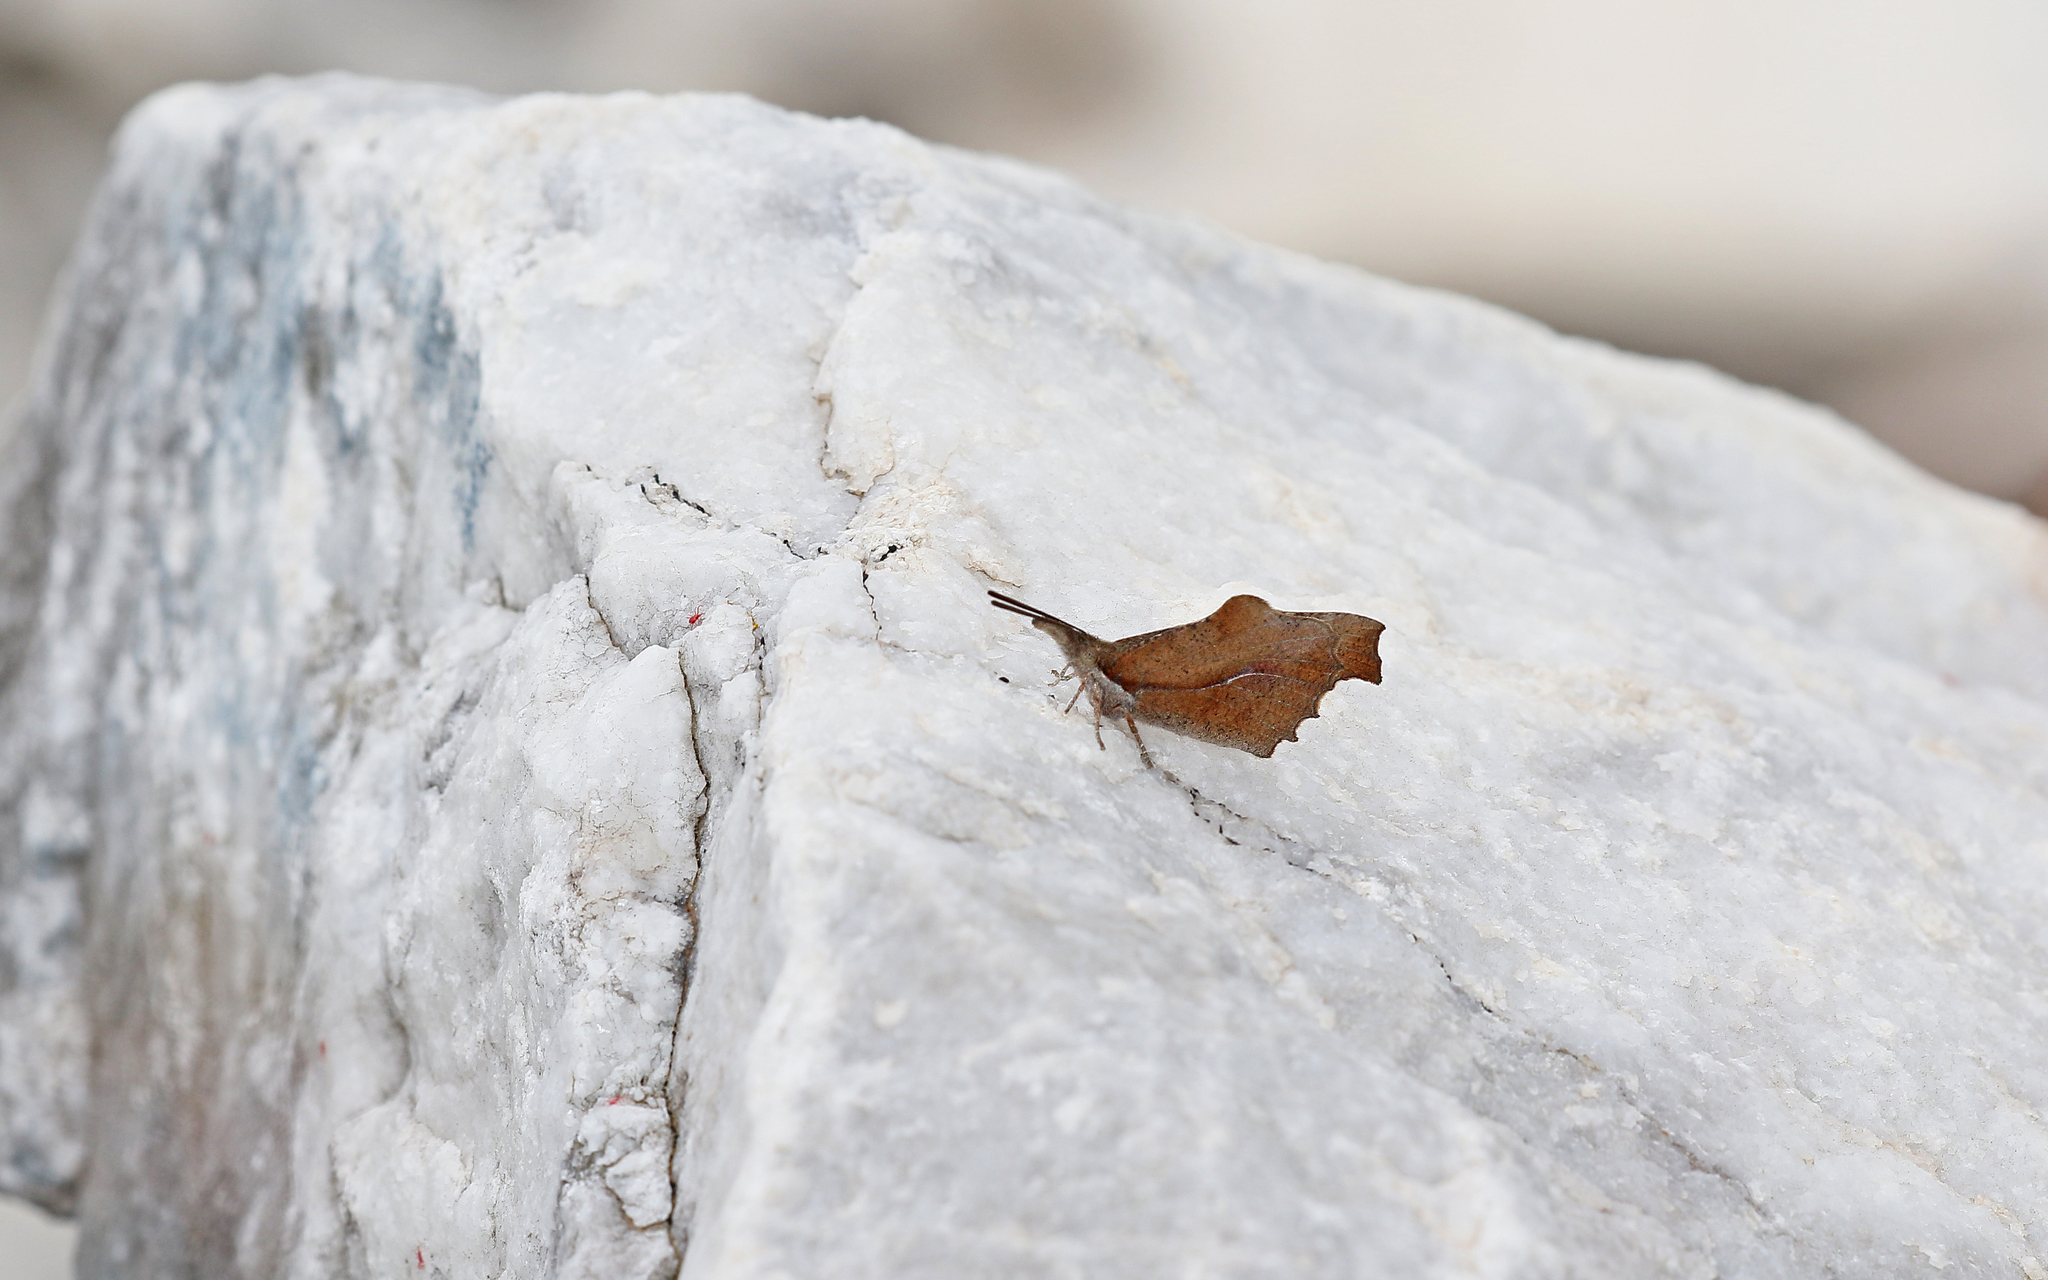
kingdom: Animalia
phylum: Arthropoda
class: Insecta
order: Lepidoptera
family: Nymphalidae
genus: Libythea
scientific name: Libythea celtis
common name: Nettle-tree butterfly
